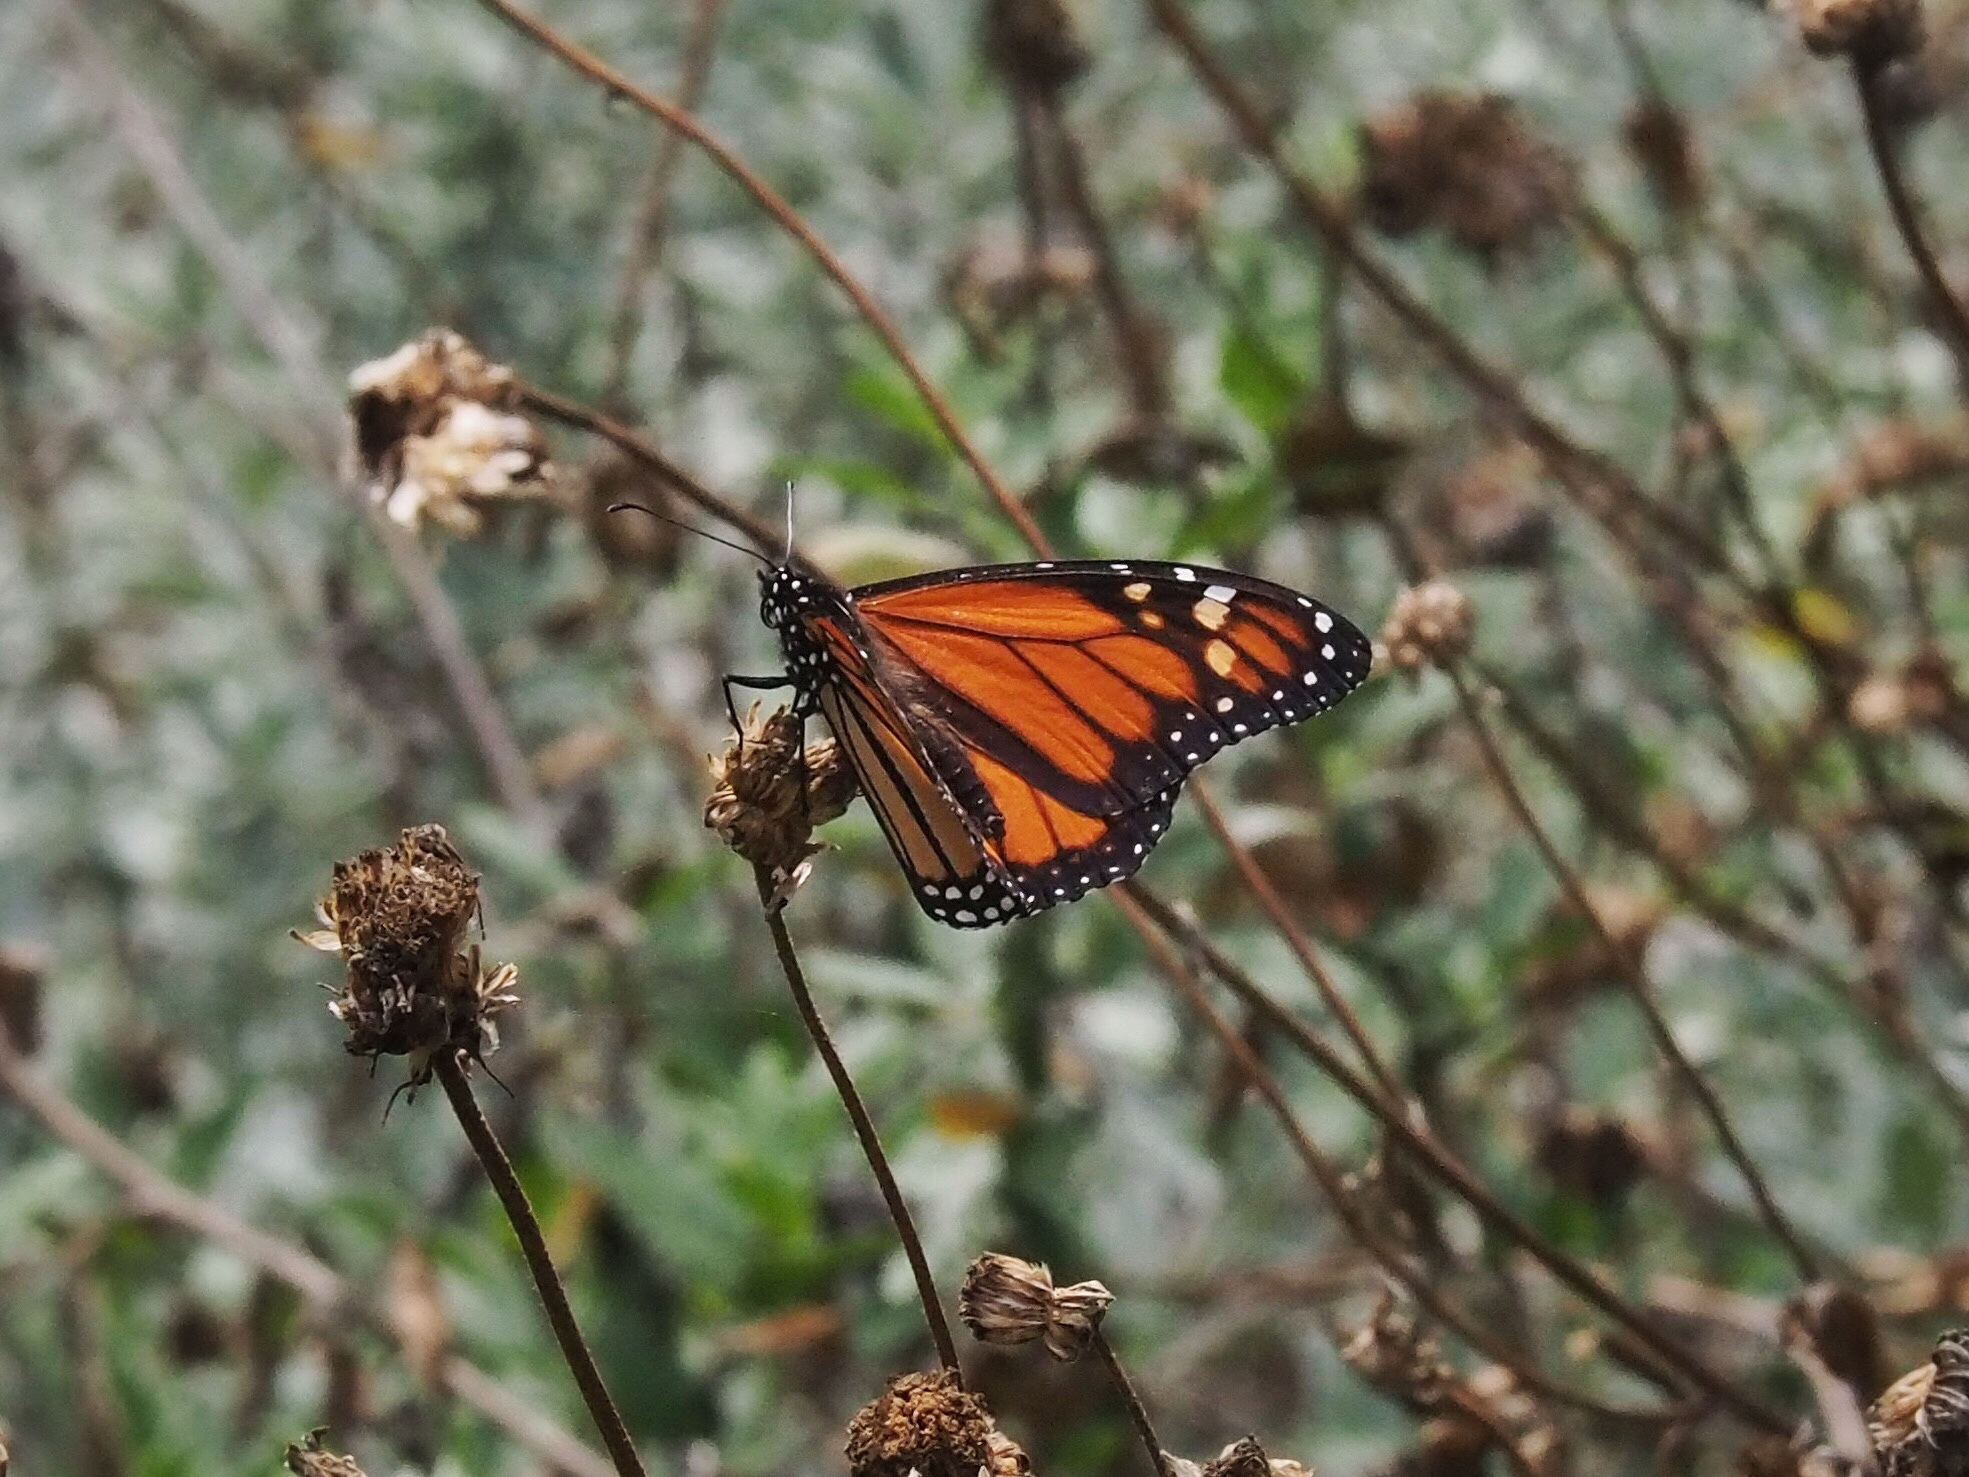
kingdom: Animalia
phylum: Arthropoda
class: Insecta
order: Lepidoptera
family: Nymphalidae
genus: Danaus
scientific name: Danaus plexippus
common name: Monarch
